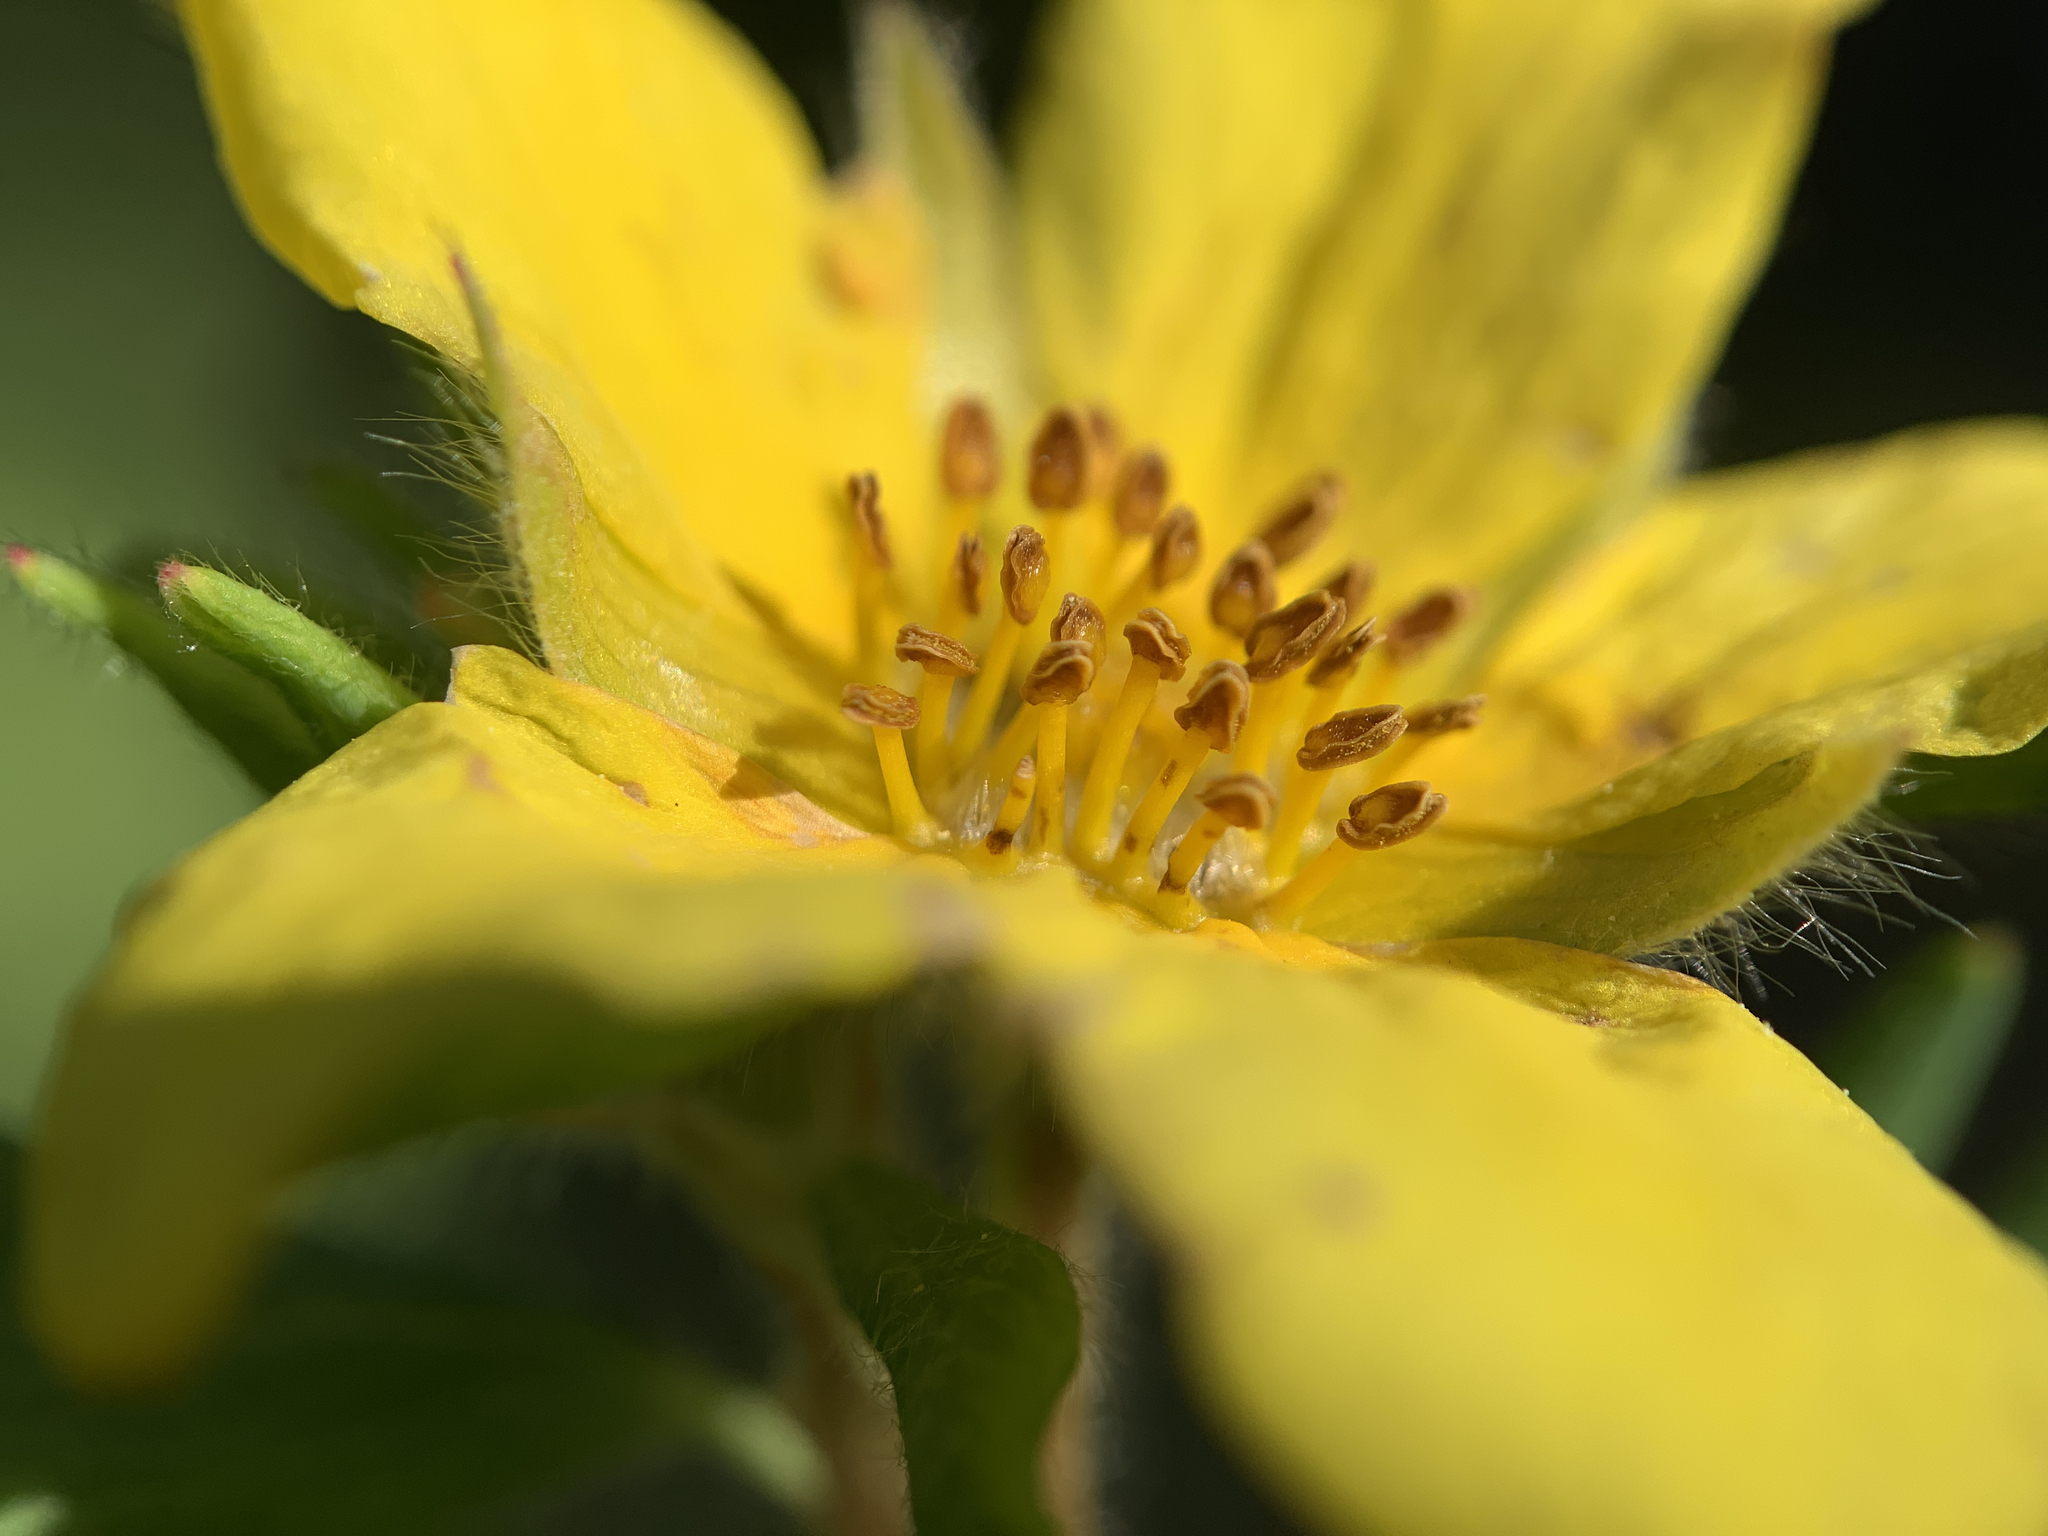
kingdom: Plantae
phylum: Tracheophyta
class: Magnoliopsida
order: Rosales
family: Rosaceae
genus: Dasiphora
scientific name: Dasiphora fruticosa
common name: Shrubby cinquefoil
